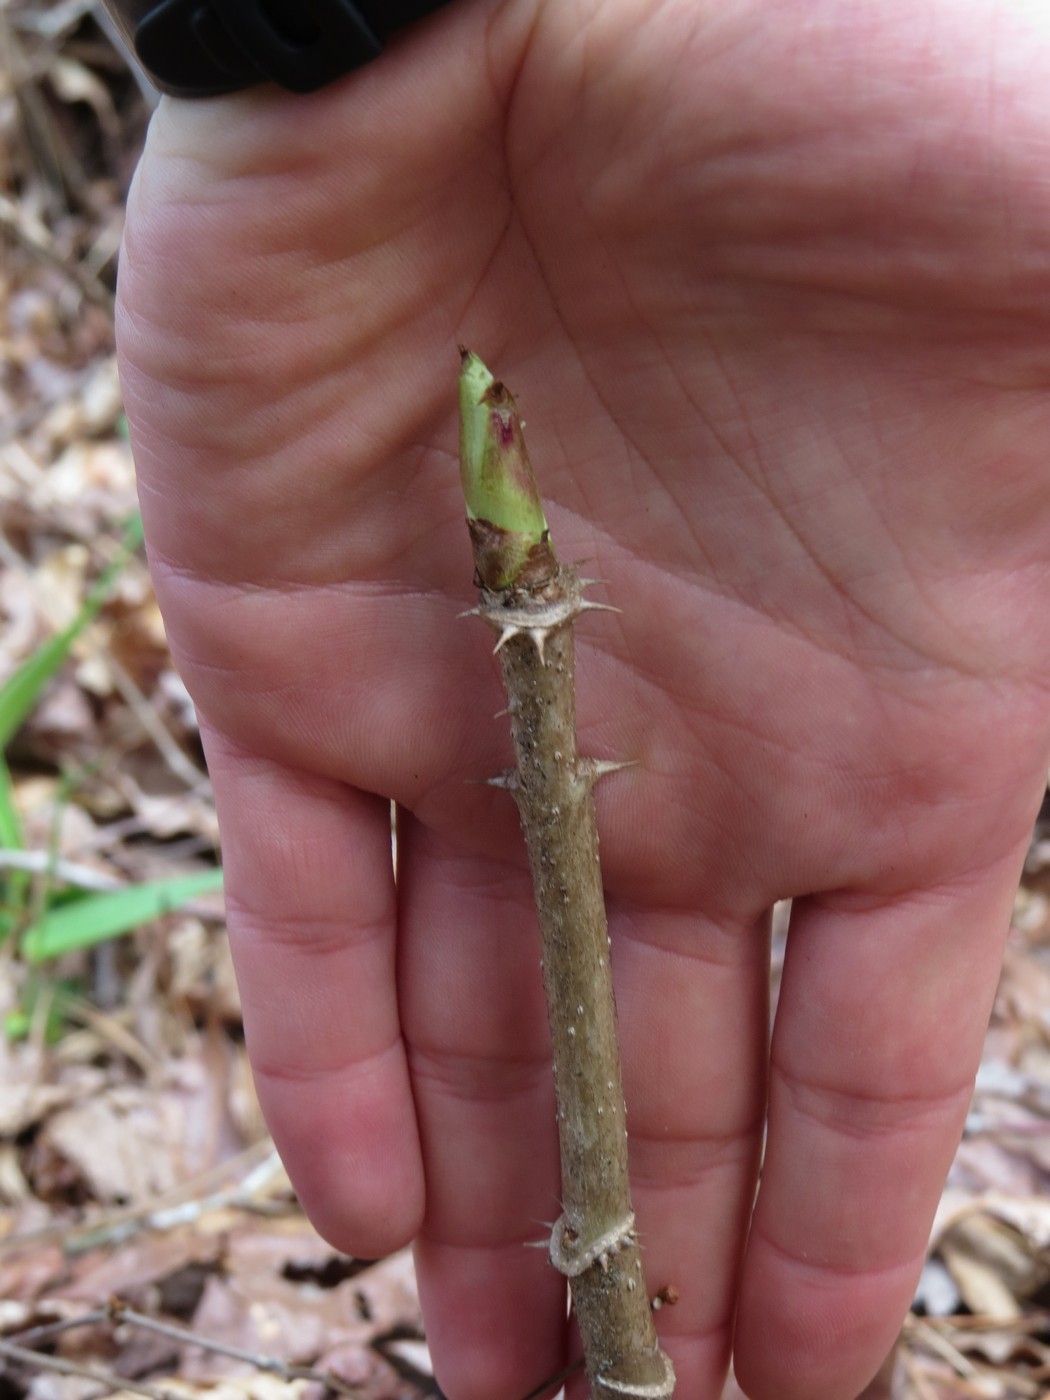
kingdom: Plantae
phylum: Tracheophyta
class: Magnoliopsida
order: Apiales
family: Araliaceae
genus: Aralia
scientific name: Aralia spinosa
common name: Hercules'-club
